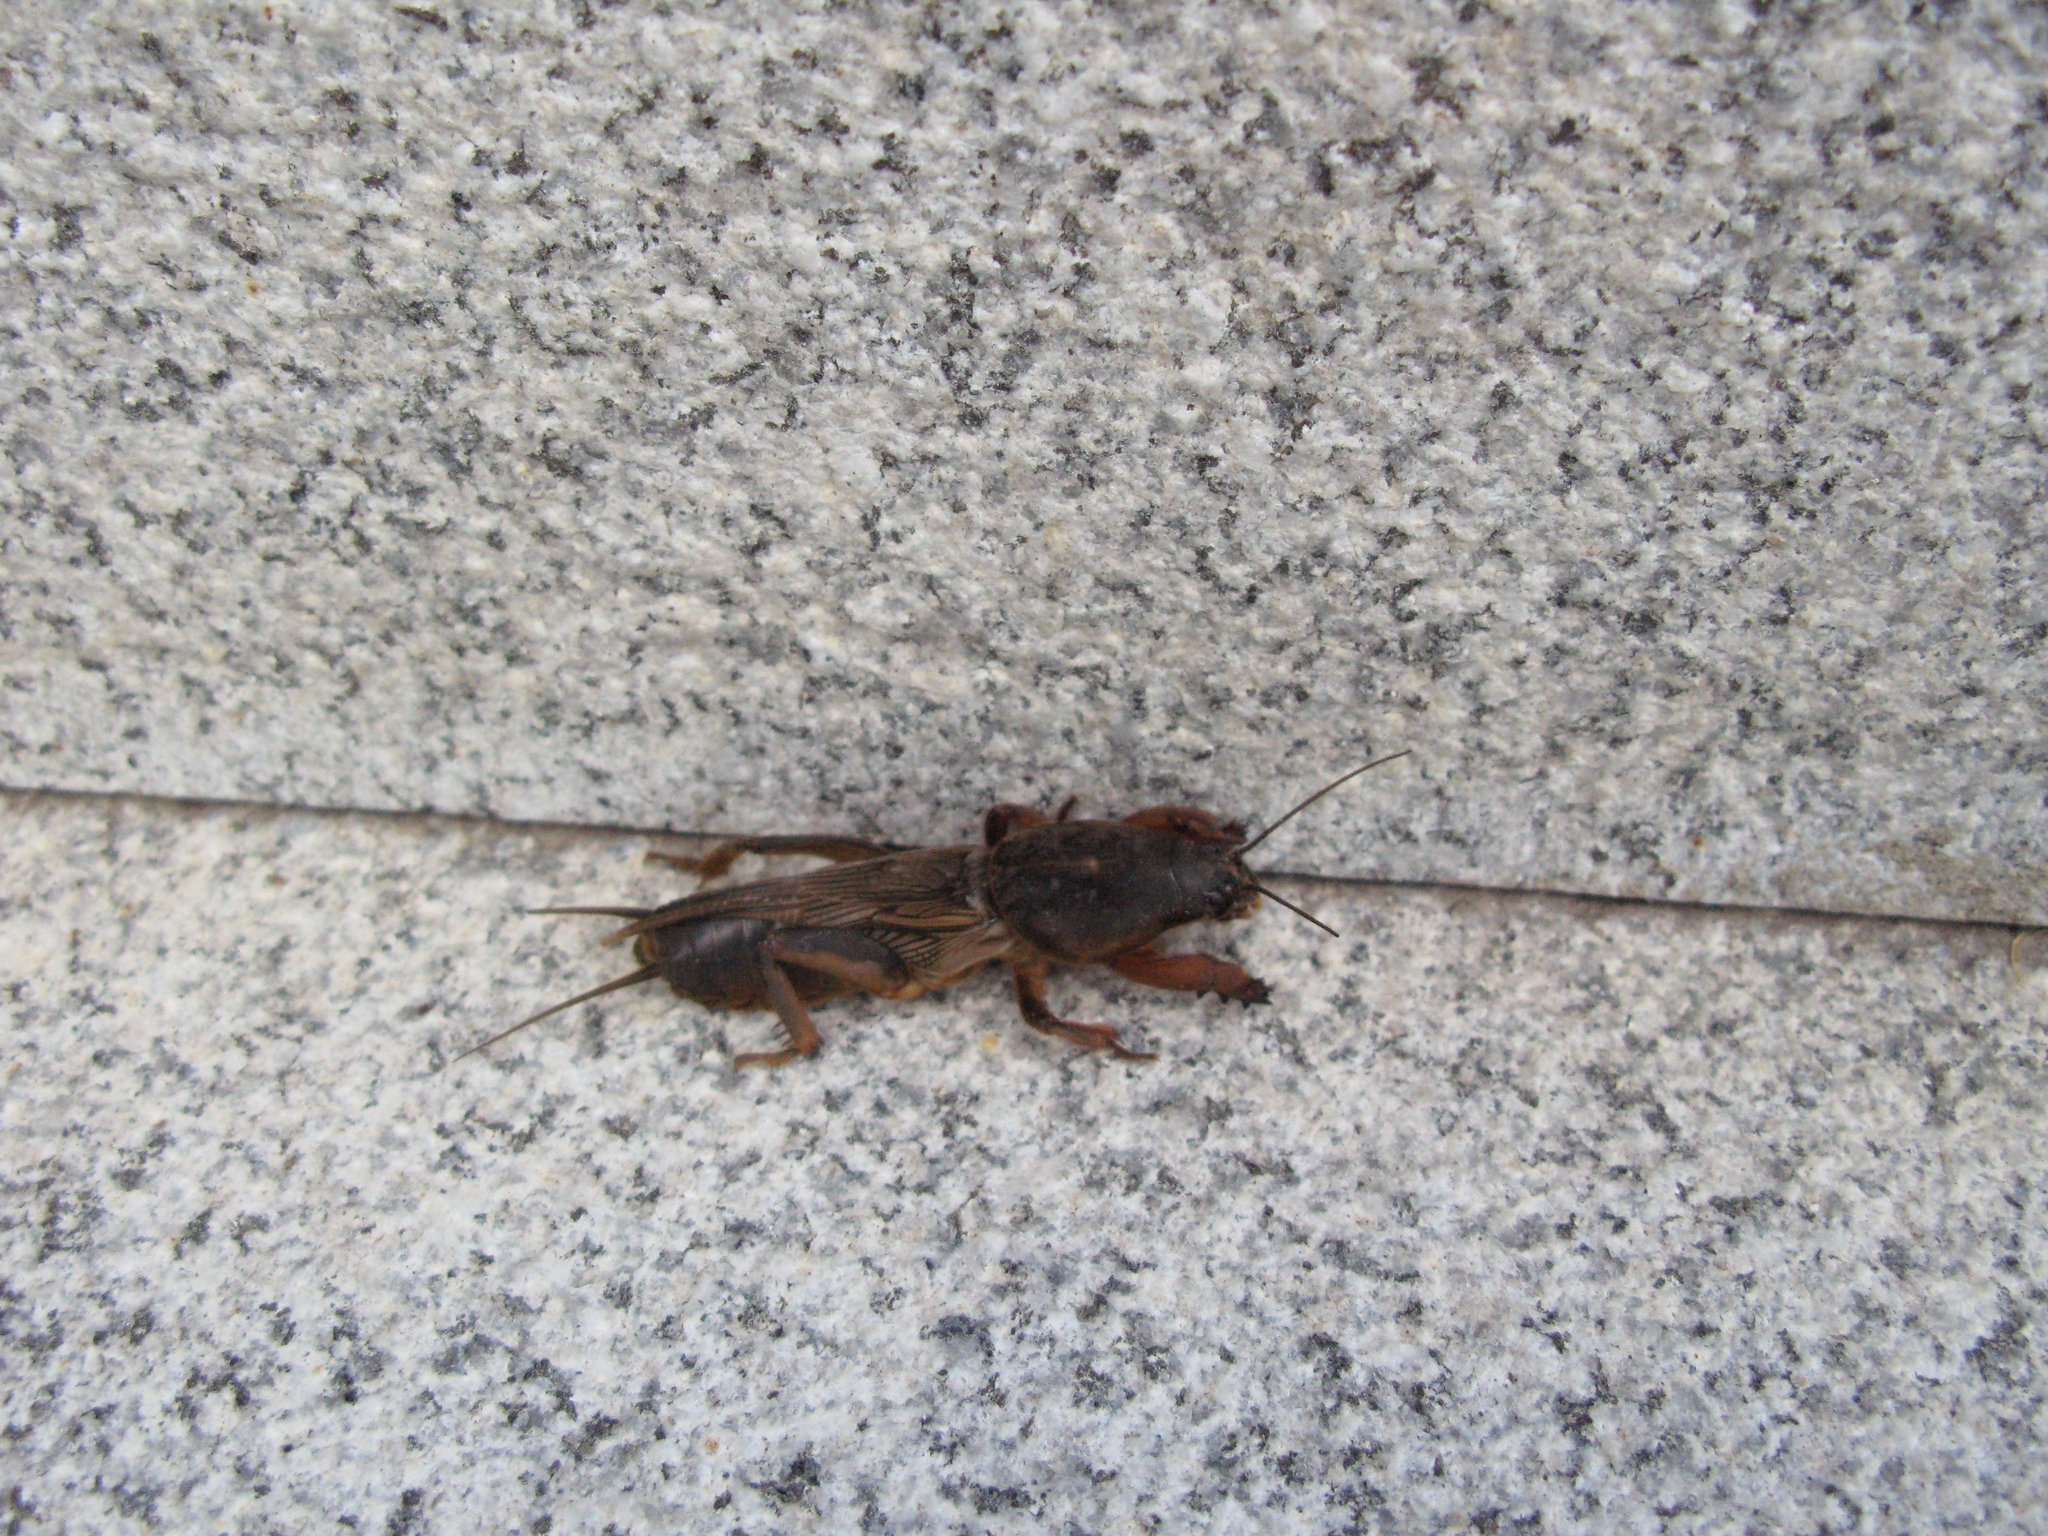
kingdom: Animalia
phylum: Arthropoda
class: Insecta
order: Orthoptera
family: Gryllotalpidae
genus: Gryllotalpa
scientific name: Gryllotalpa gryllotalpa
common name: European mole cricket
